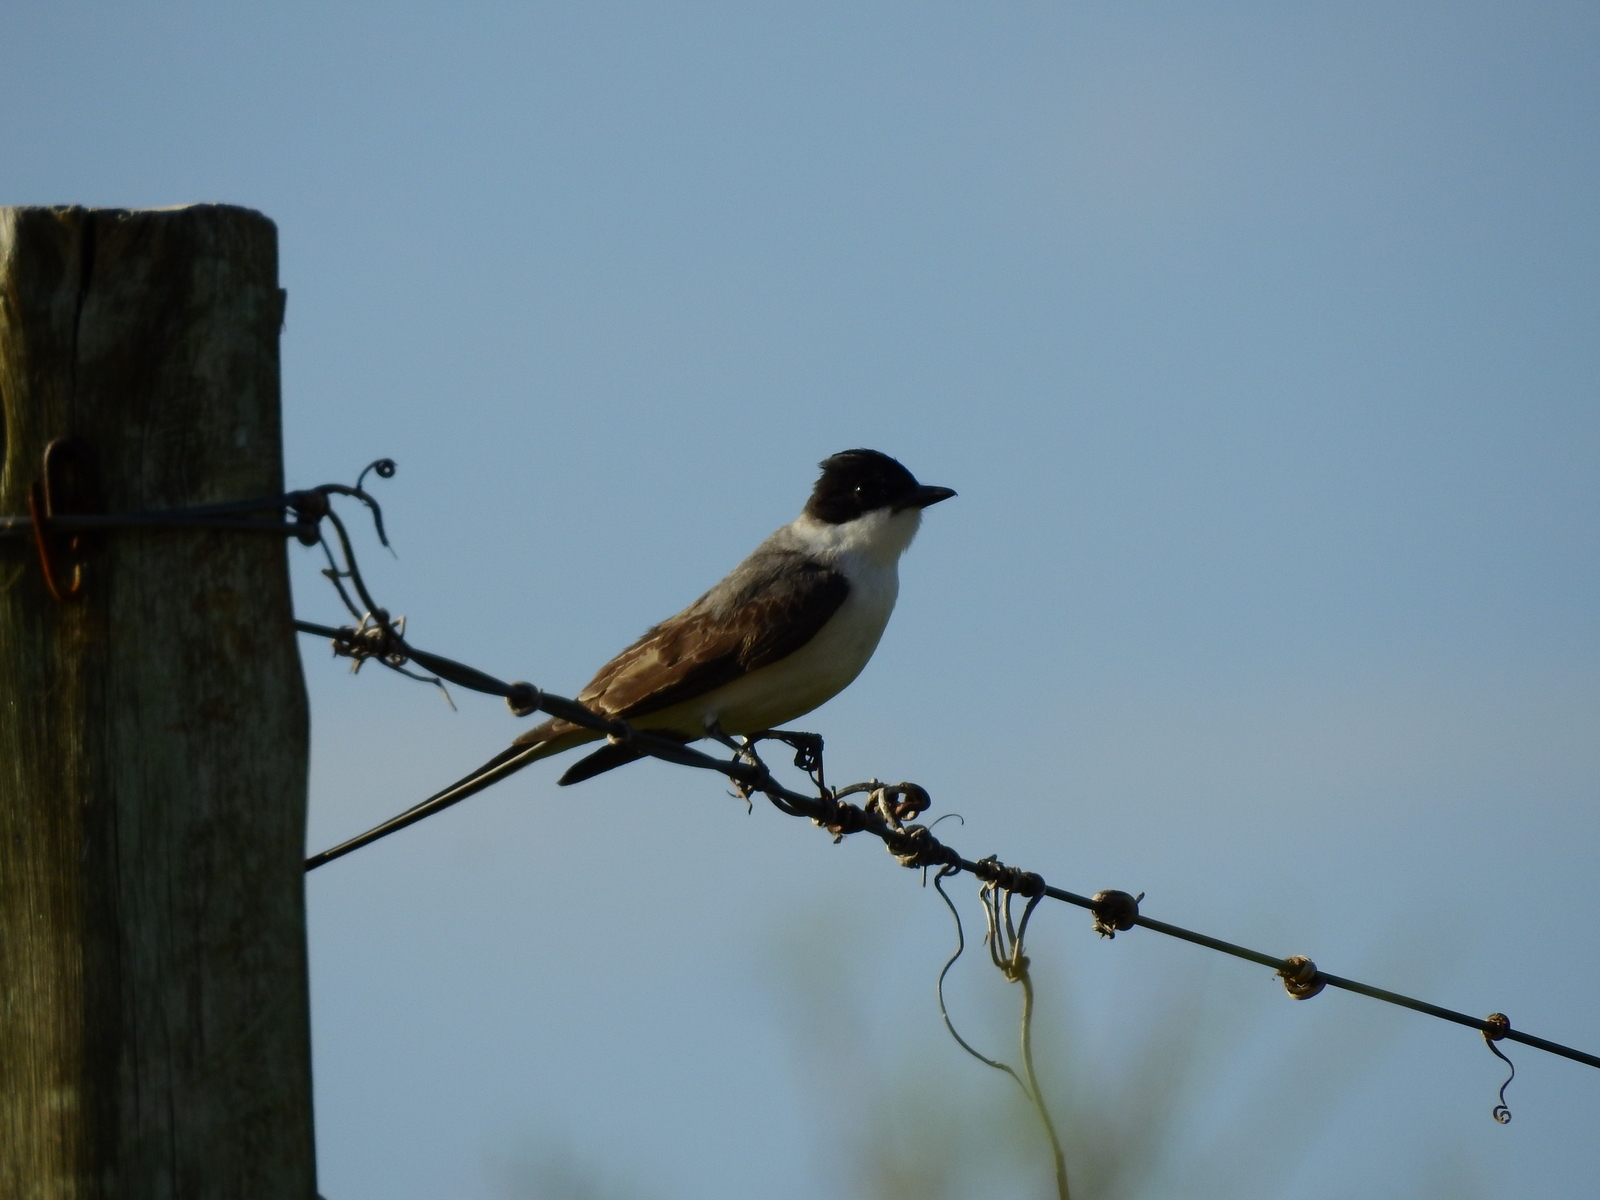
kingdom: Animalia
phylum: Chordata
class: Aves
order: Passeriformes
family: Tyrannidae
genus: Tyrannus
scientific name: Tyrannus savana
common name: Fork-tailed flycatcher
